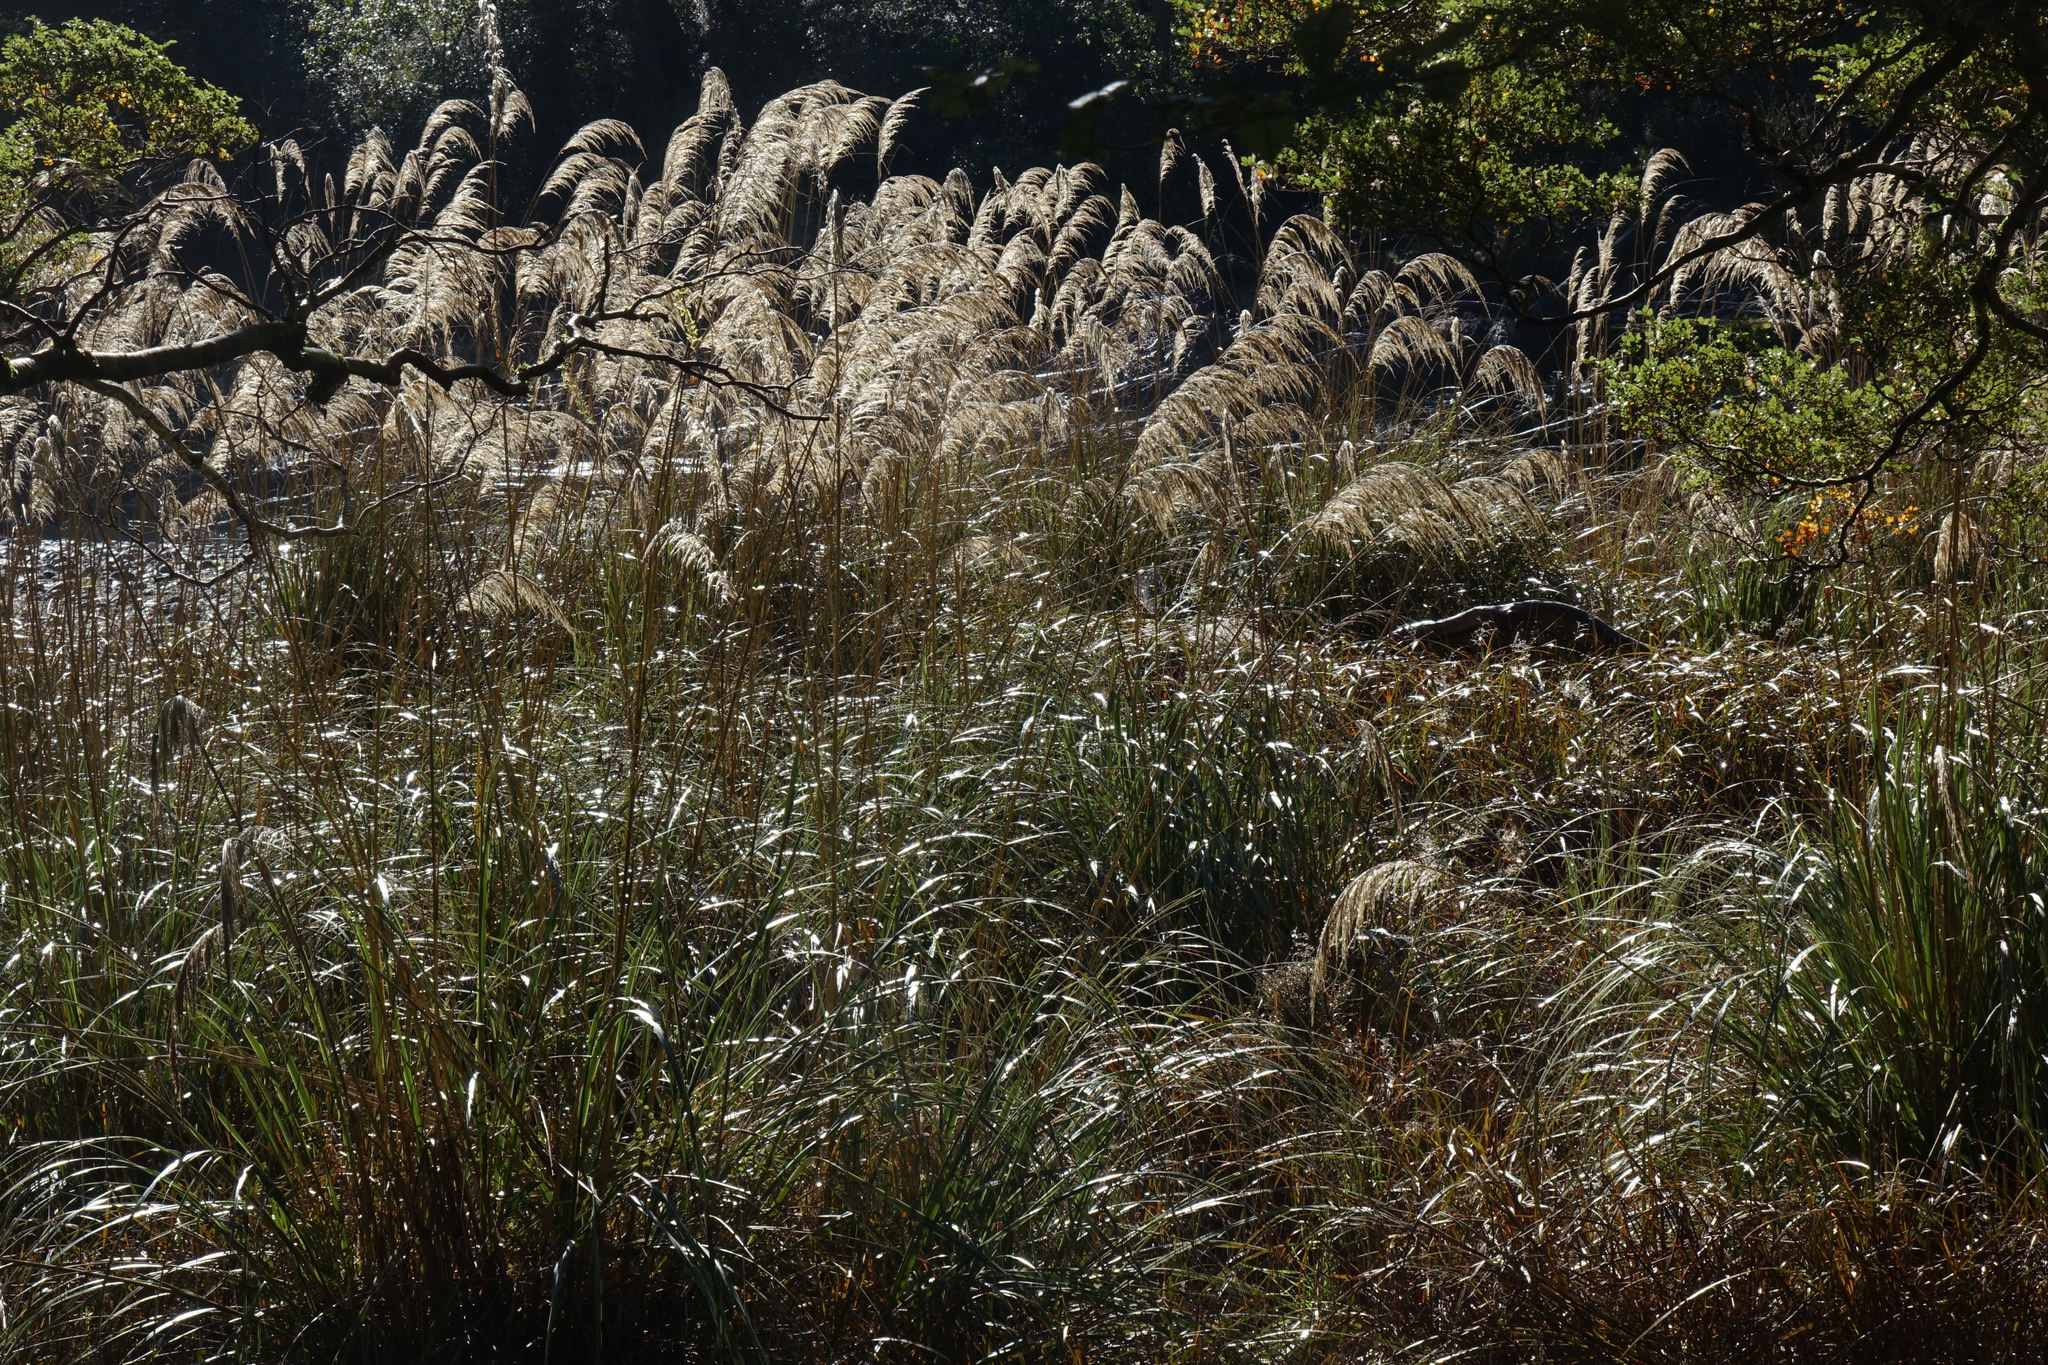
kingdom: Plantae
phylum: Tracheophyta
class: Liliopsida
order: Poales
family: Poaceae
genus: Austroderia
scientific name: Austroderia richardii
